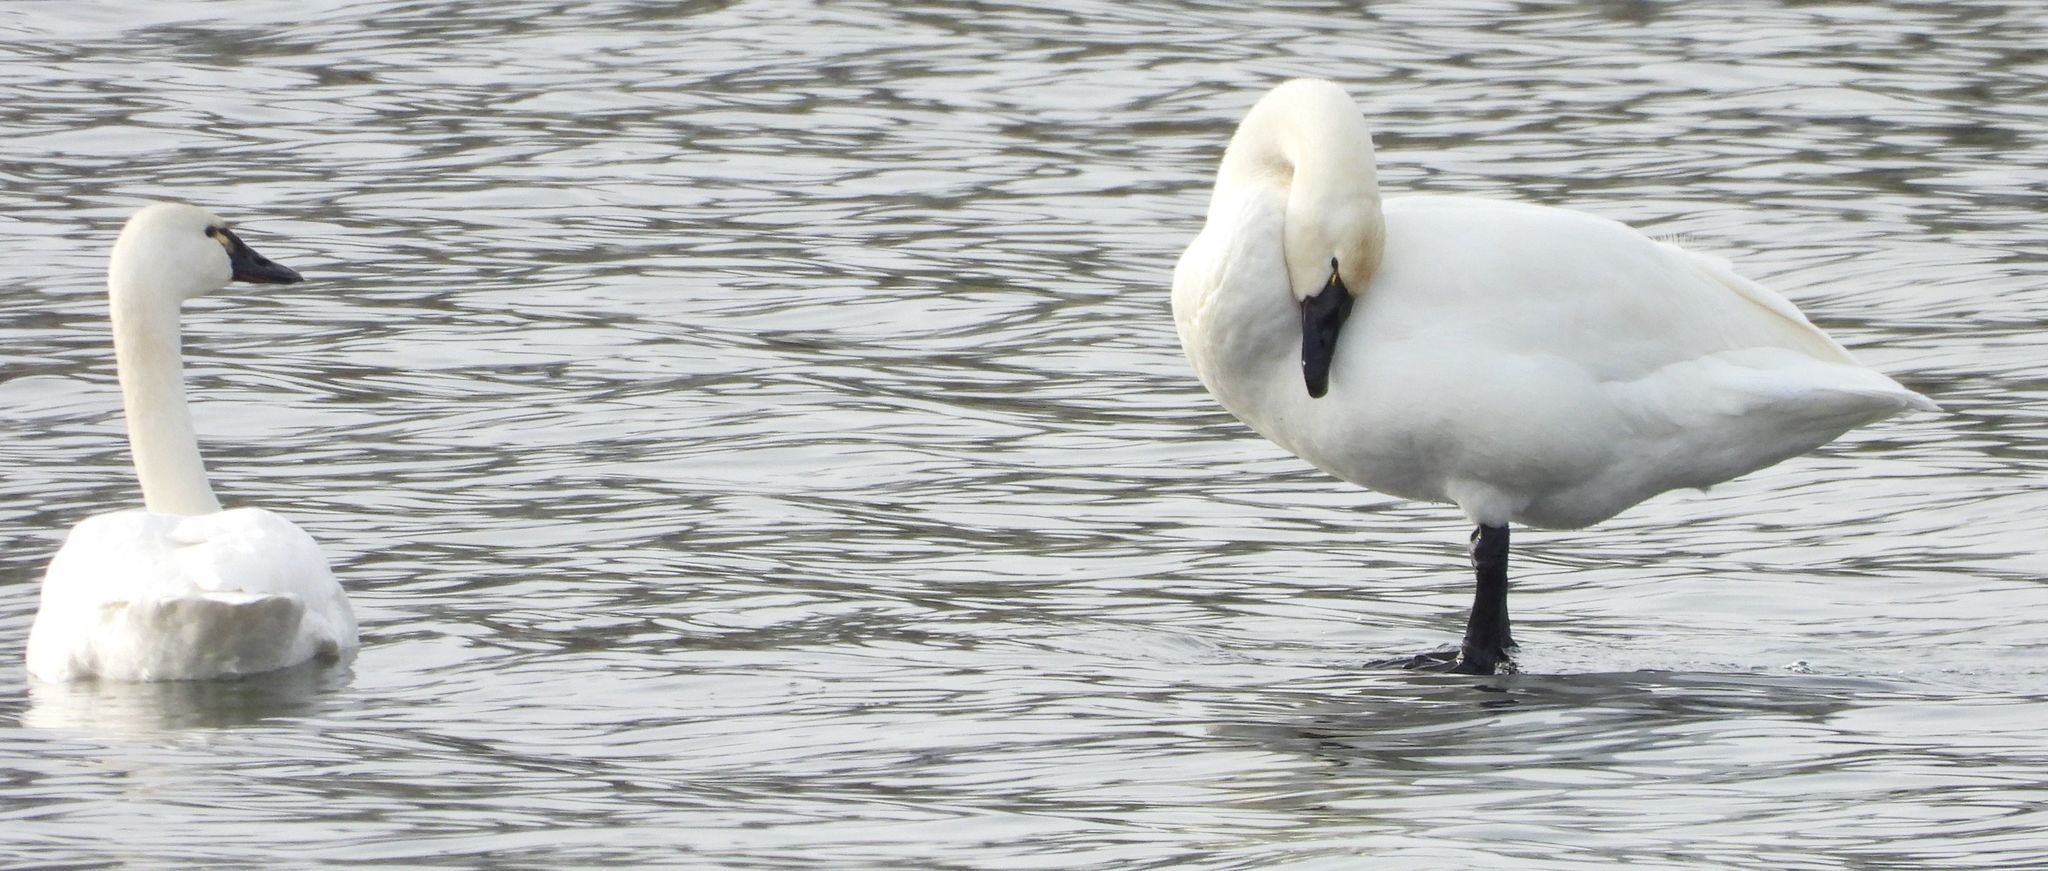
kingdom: Animalia
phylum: Chordata
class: Aves
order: Anseriformes
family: Anatidae
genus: Cygnus
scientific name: Cygnus columbianus
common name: Tundra swan
